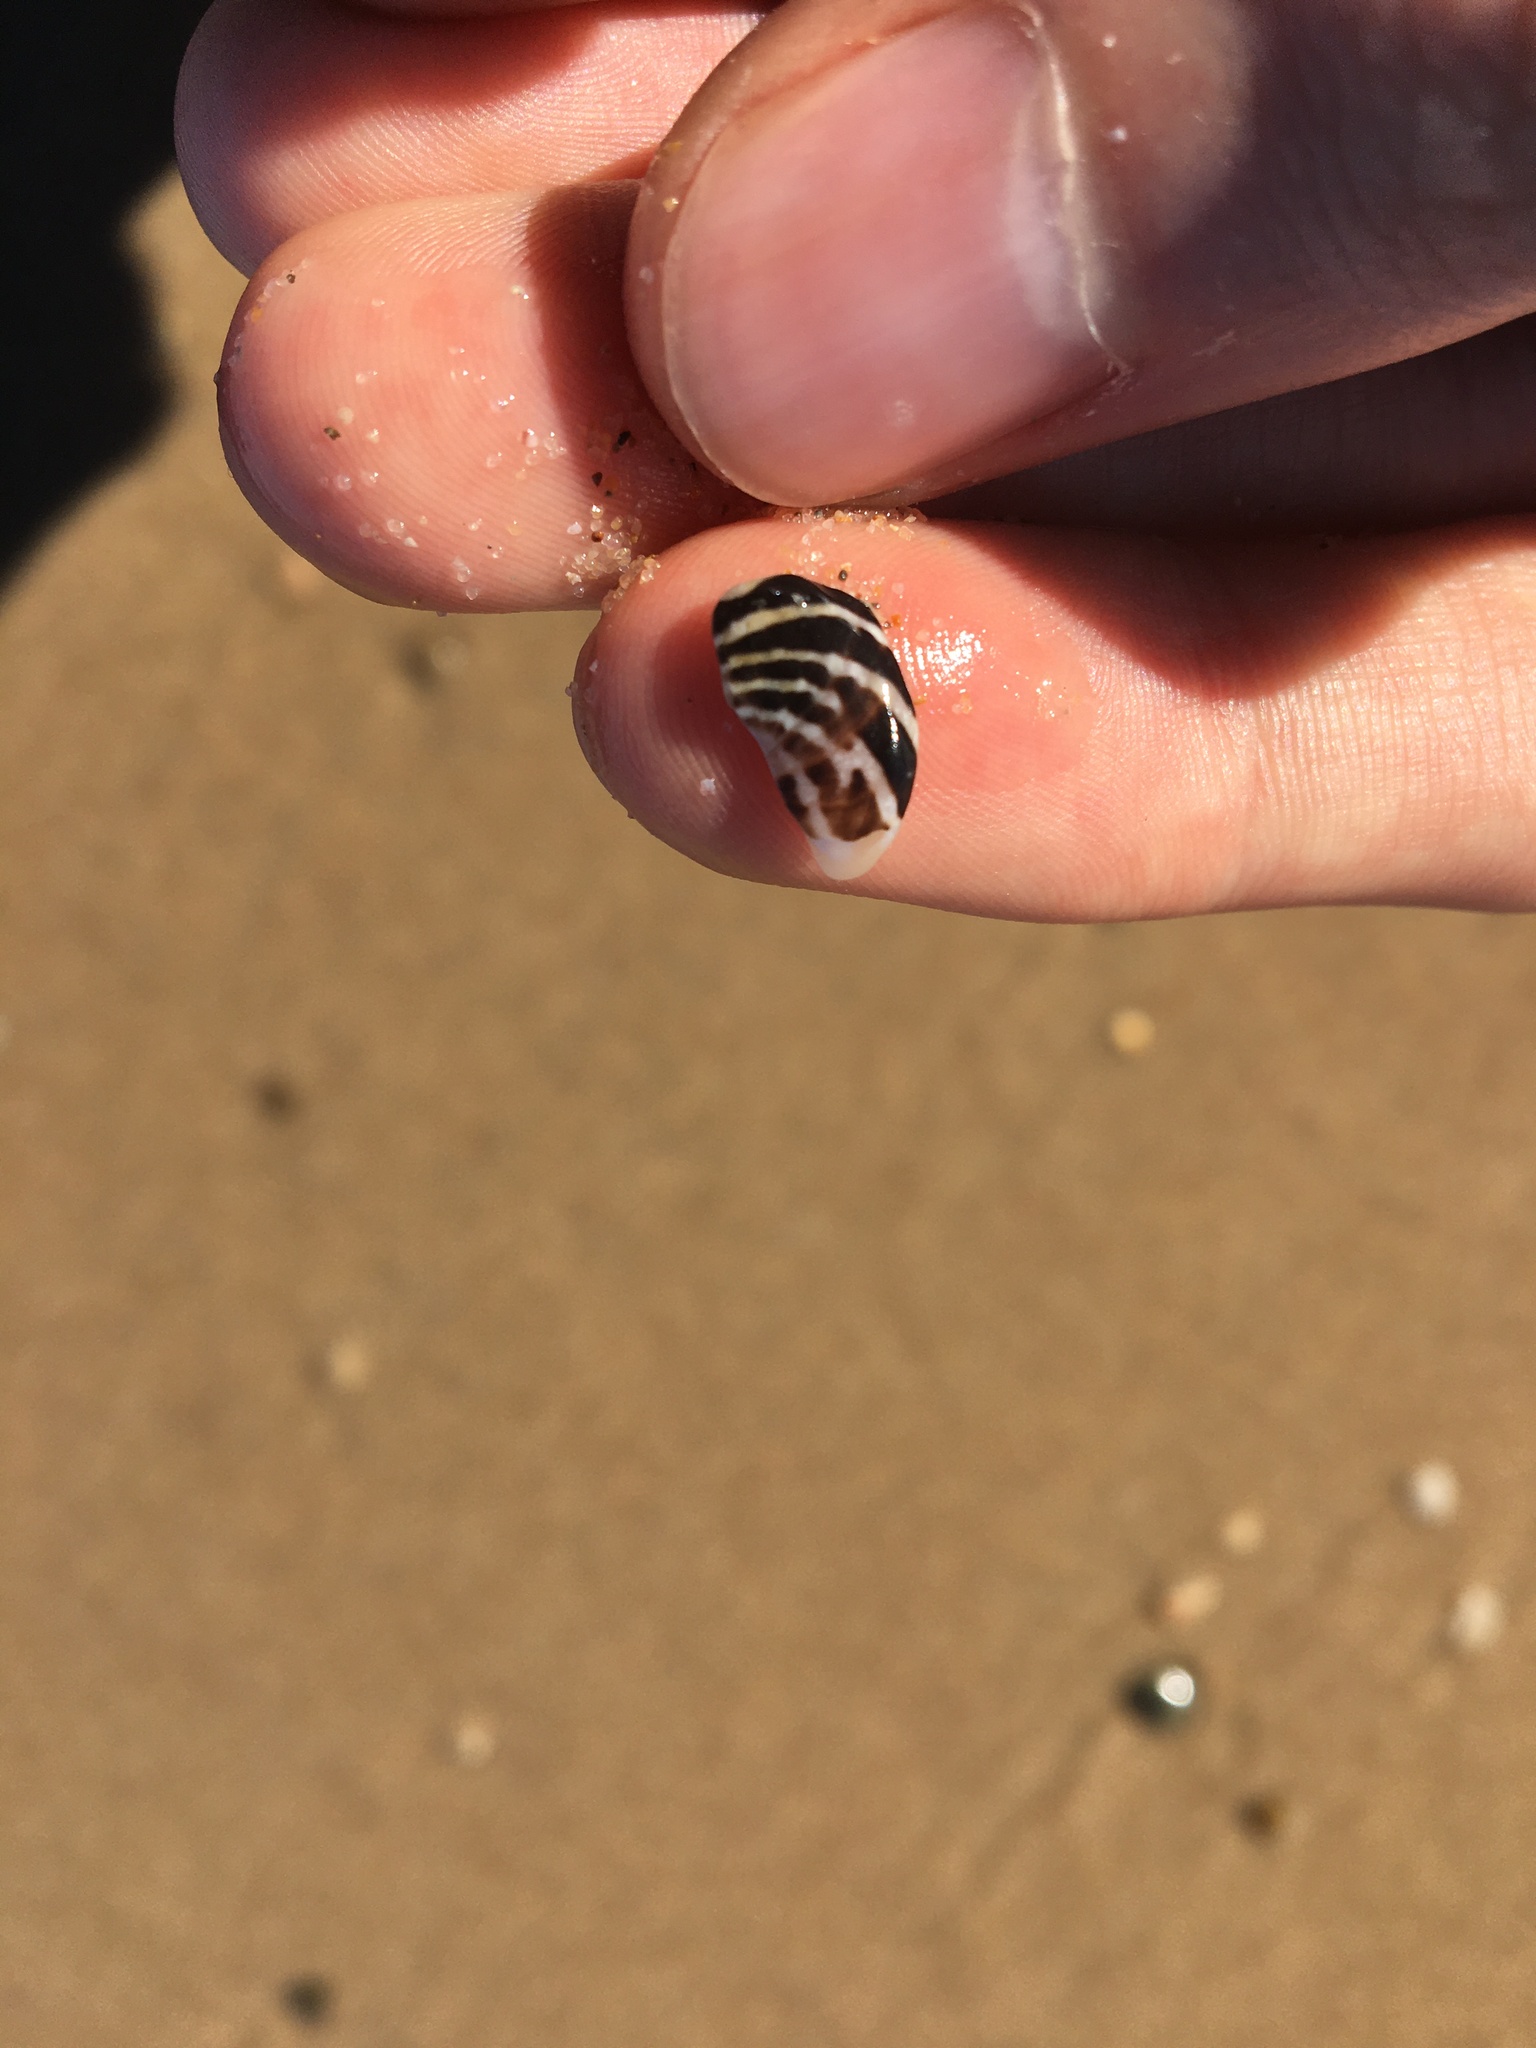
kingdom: Animalia
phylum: Mollusca
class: Gastropoda
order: Trochida
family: Trochidae
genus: Austrocochlea
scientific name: Austrocochlea porcata
